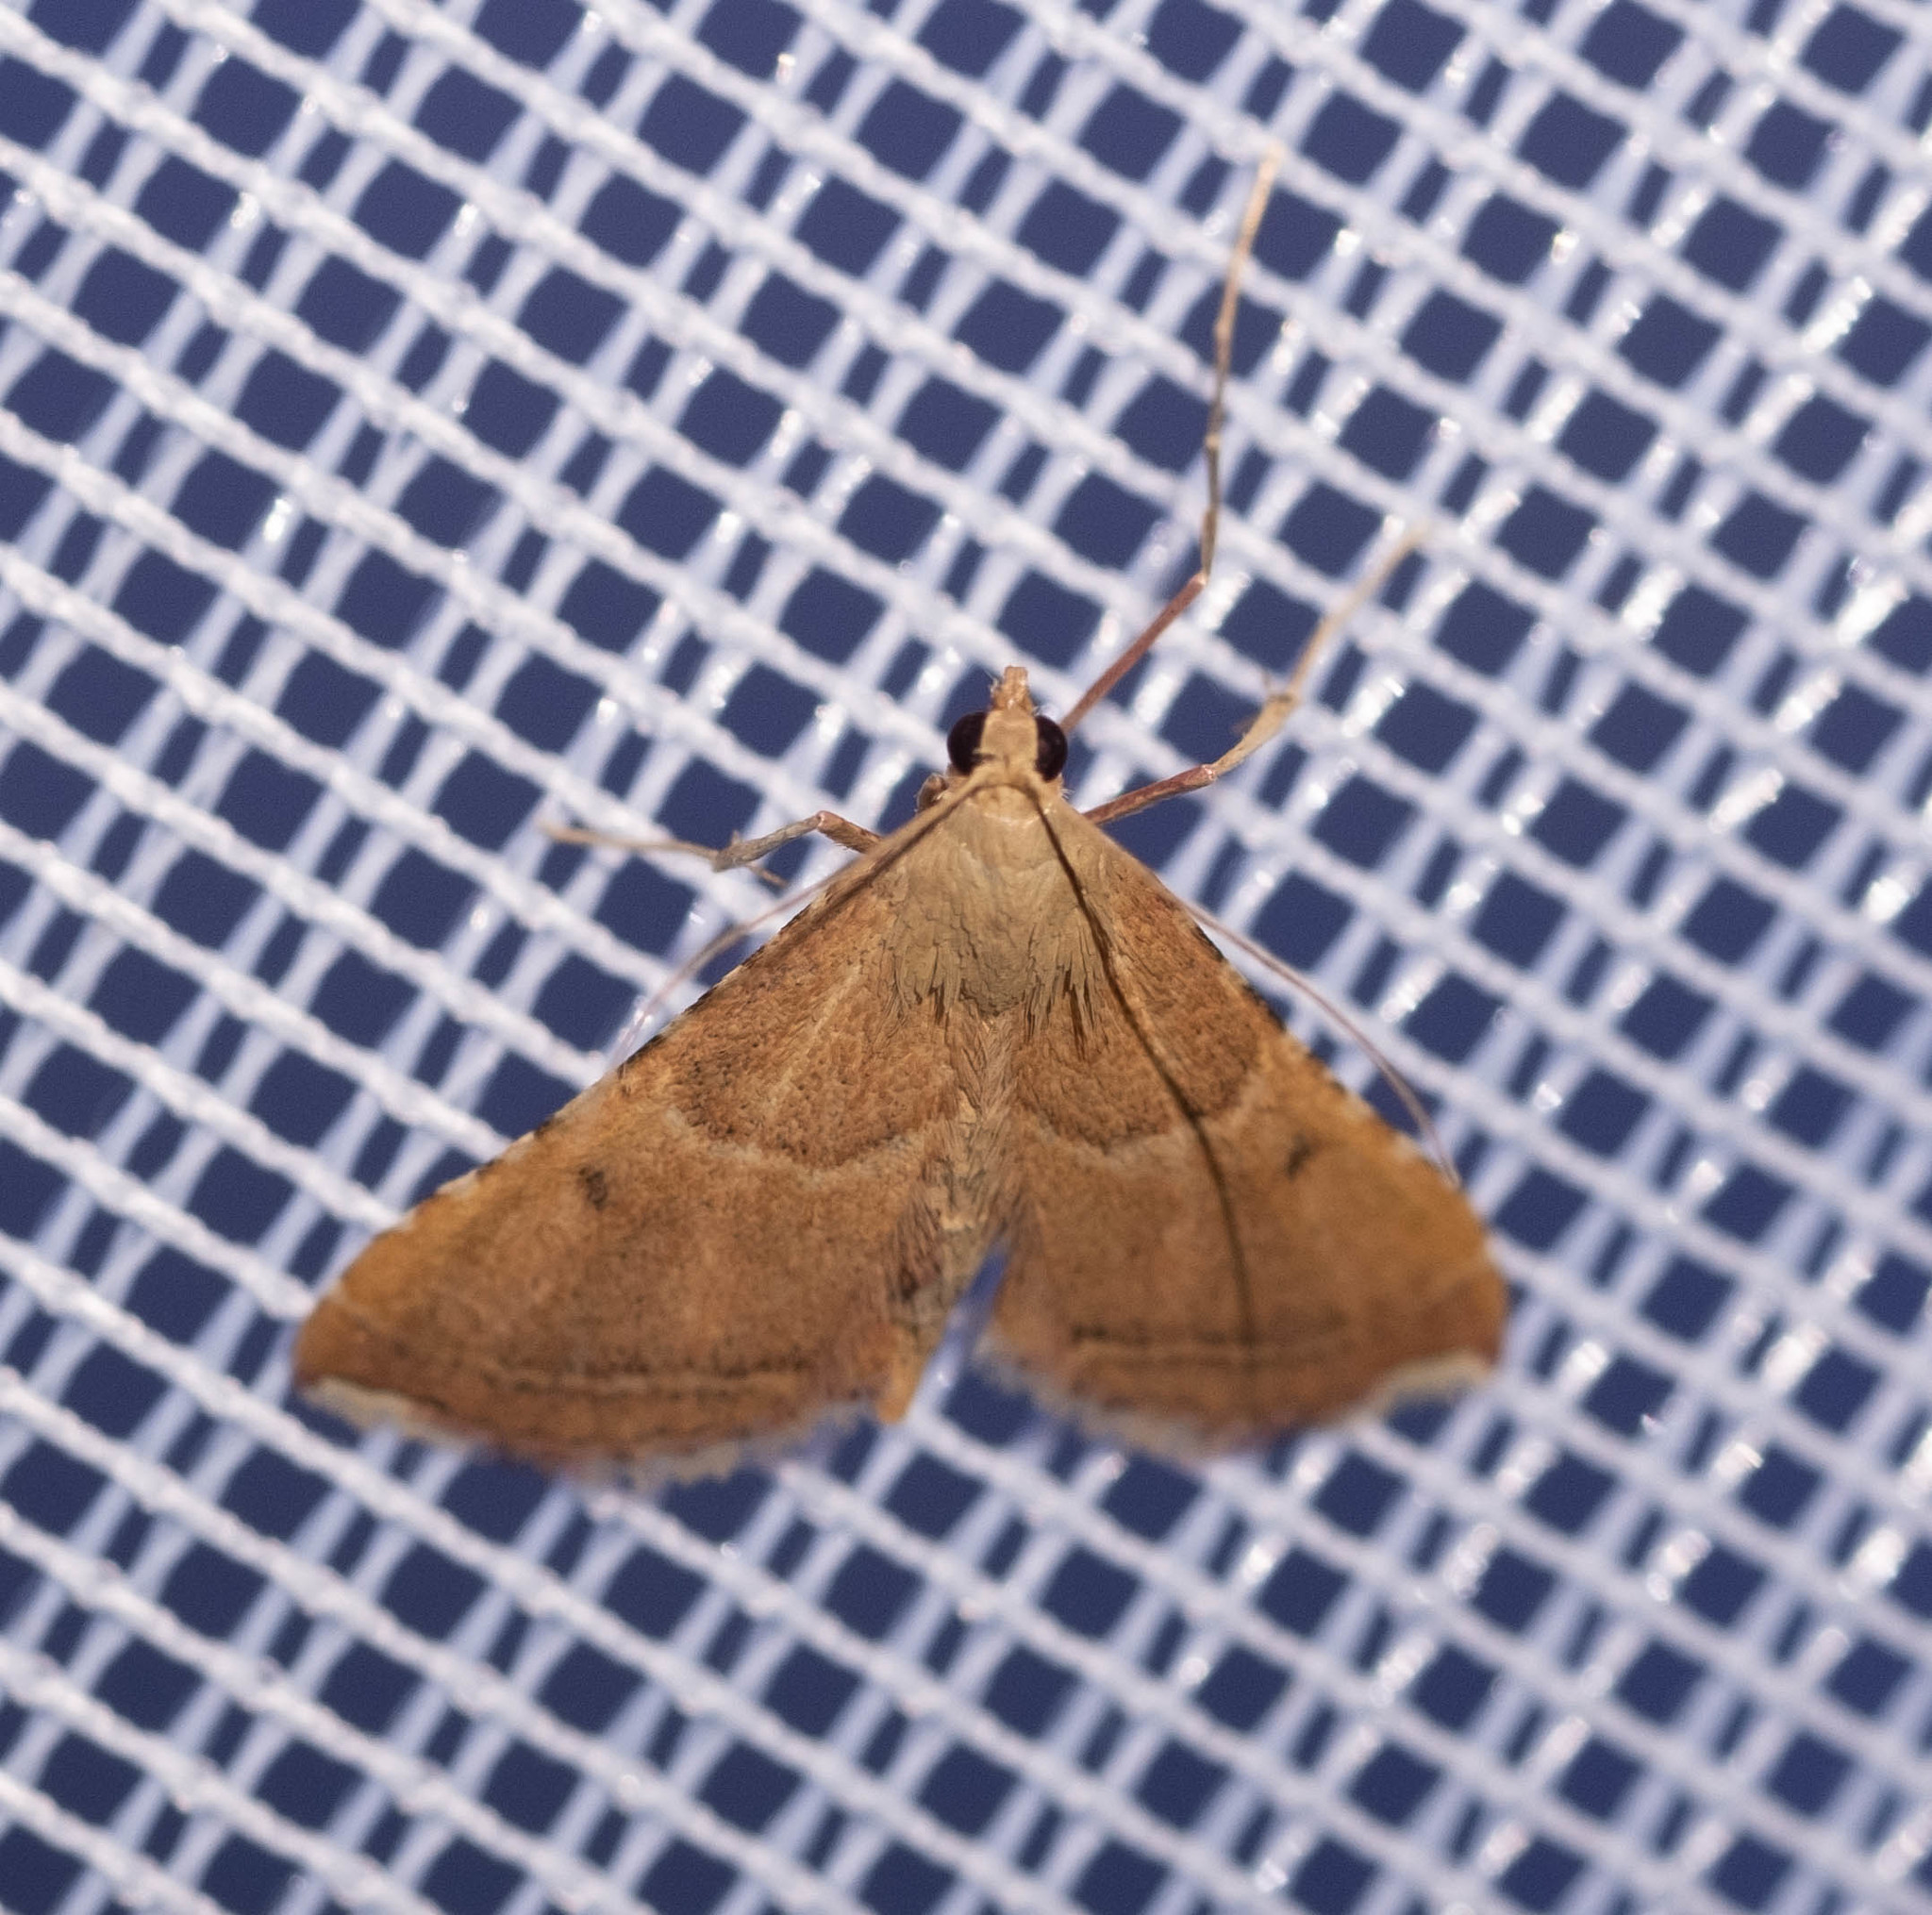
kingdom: Animalia
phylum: Arthropoda
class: Insecta
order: Lepidoptera
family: Pyralidae
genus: Endotricha
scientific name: Endotricha flammealis
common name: Rosy tabby
